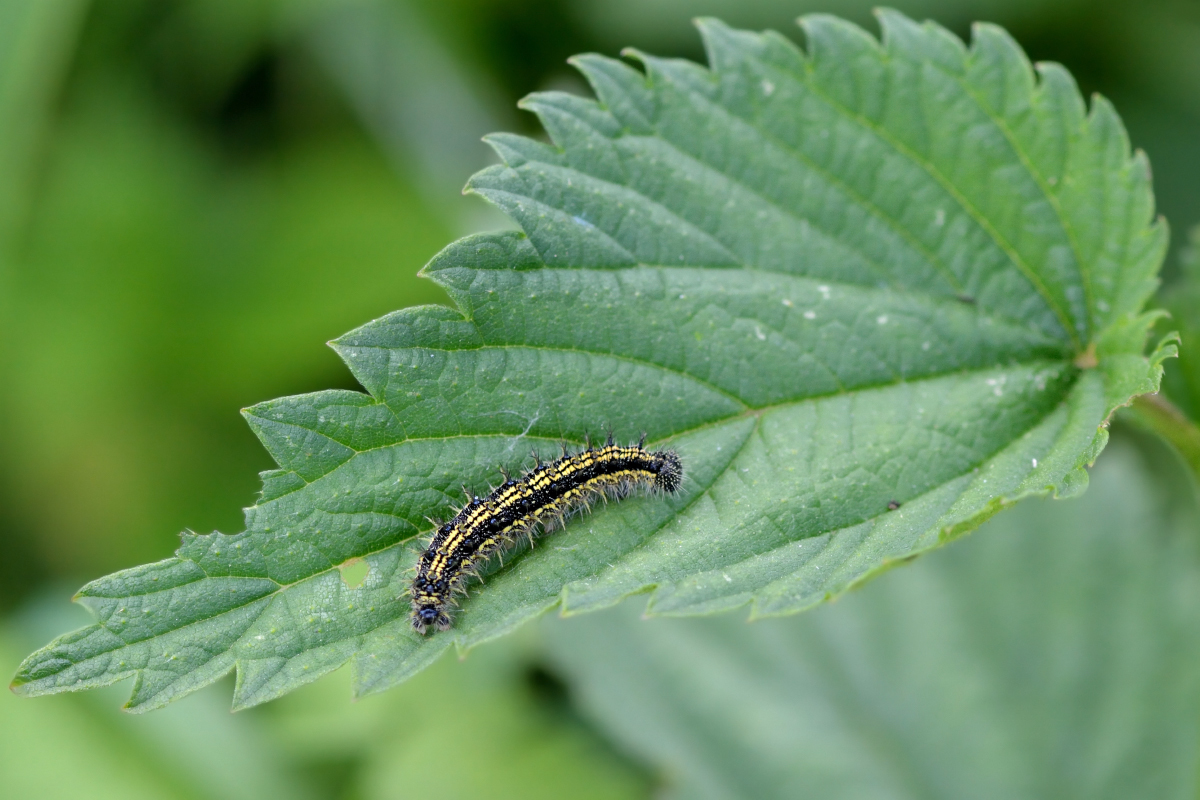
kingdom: Animalia
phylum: Arthropoda
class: Insecta
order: Lepidoptera
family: Nymphalidae
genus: Aglais
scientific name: Aglais urticae
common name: Small tortoiseshell
